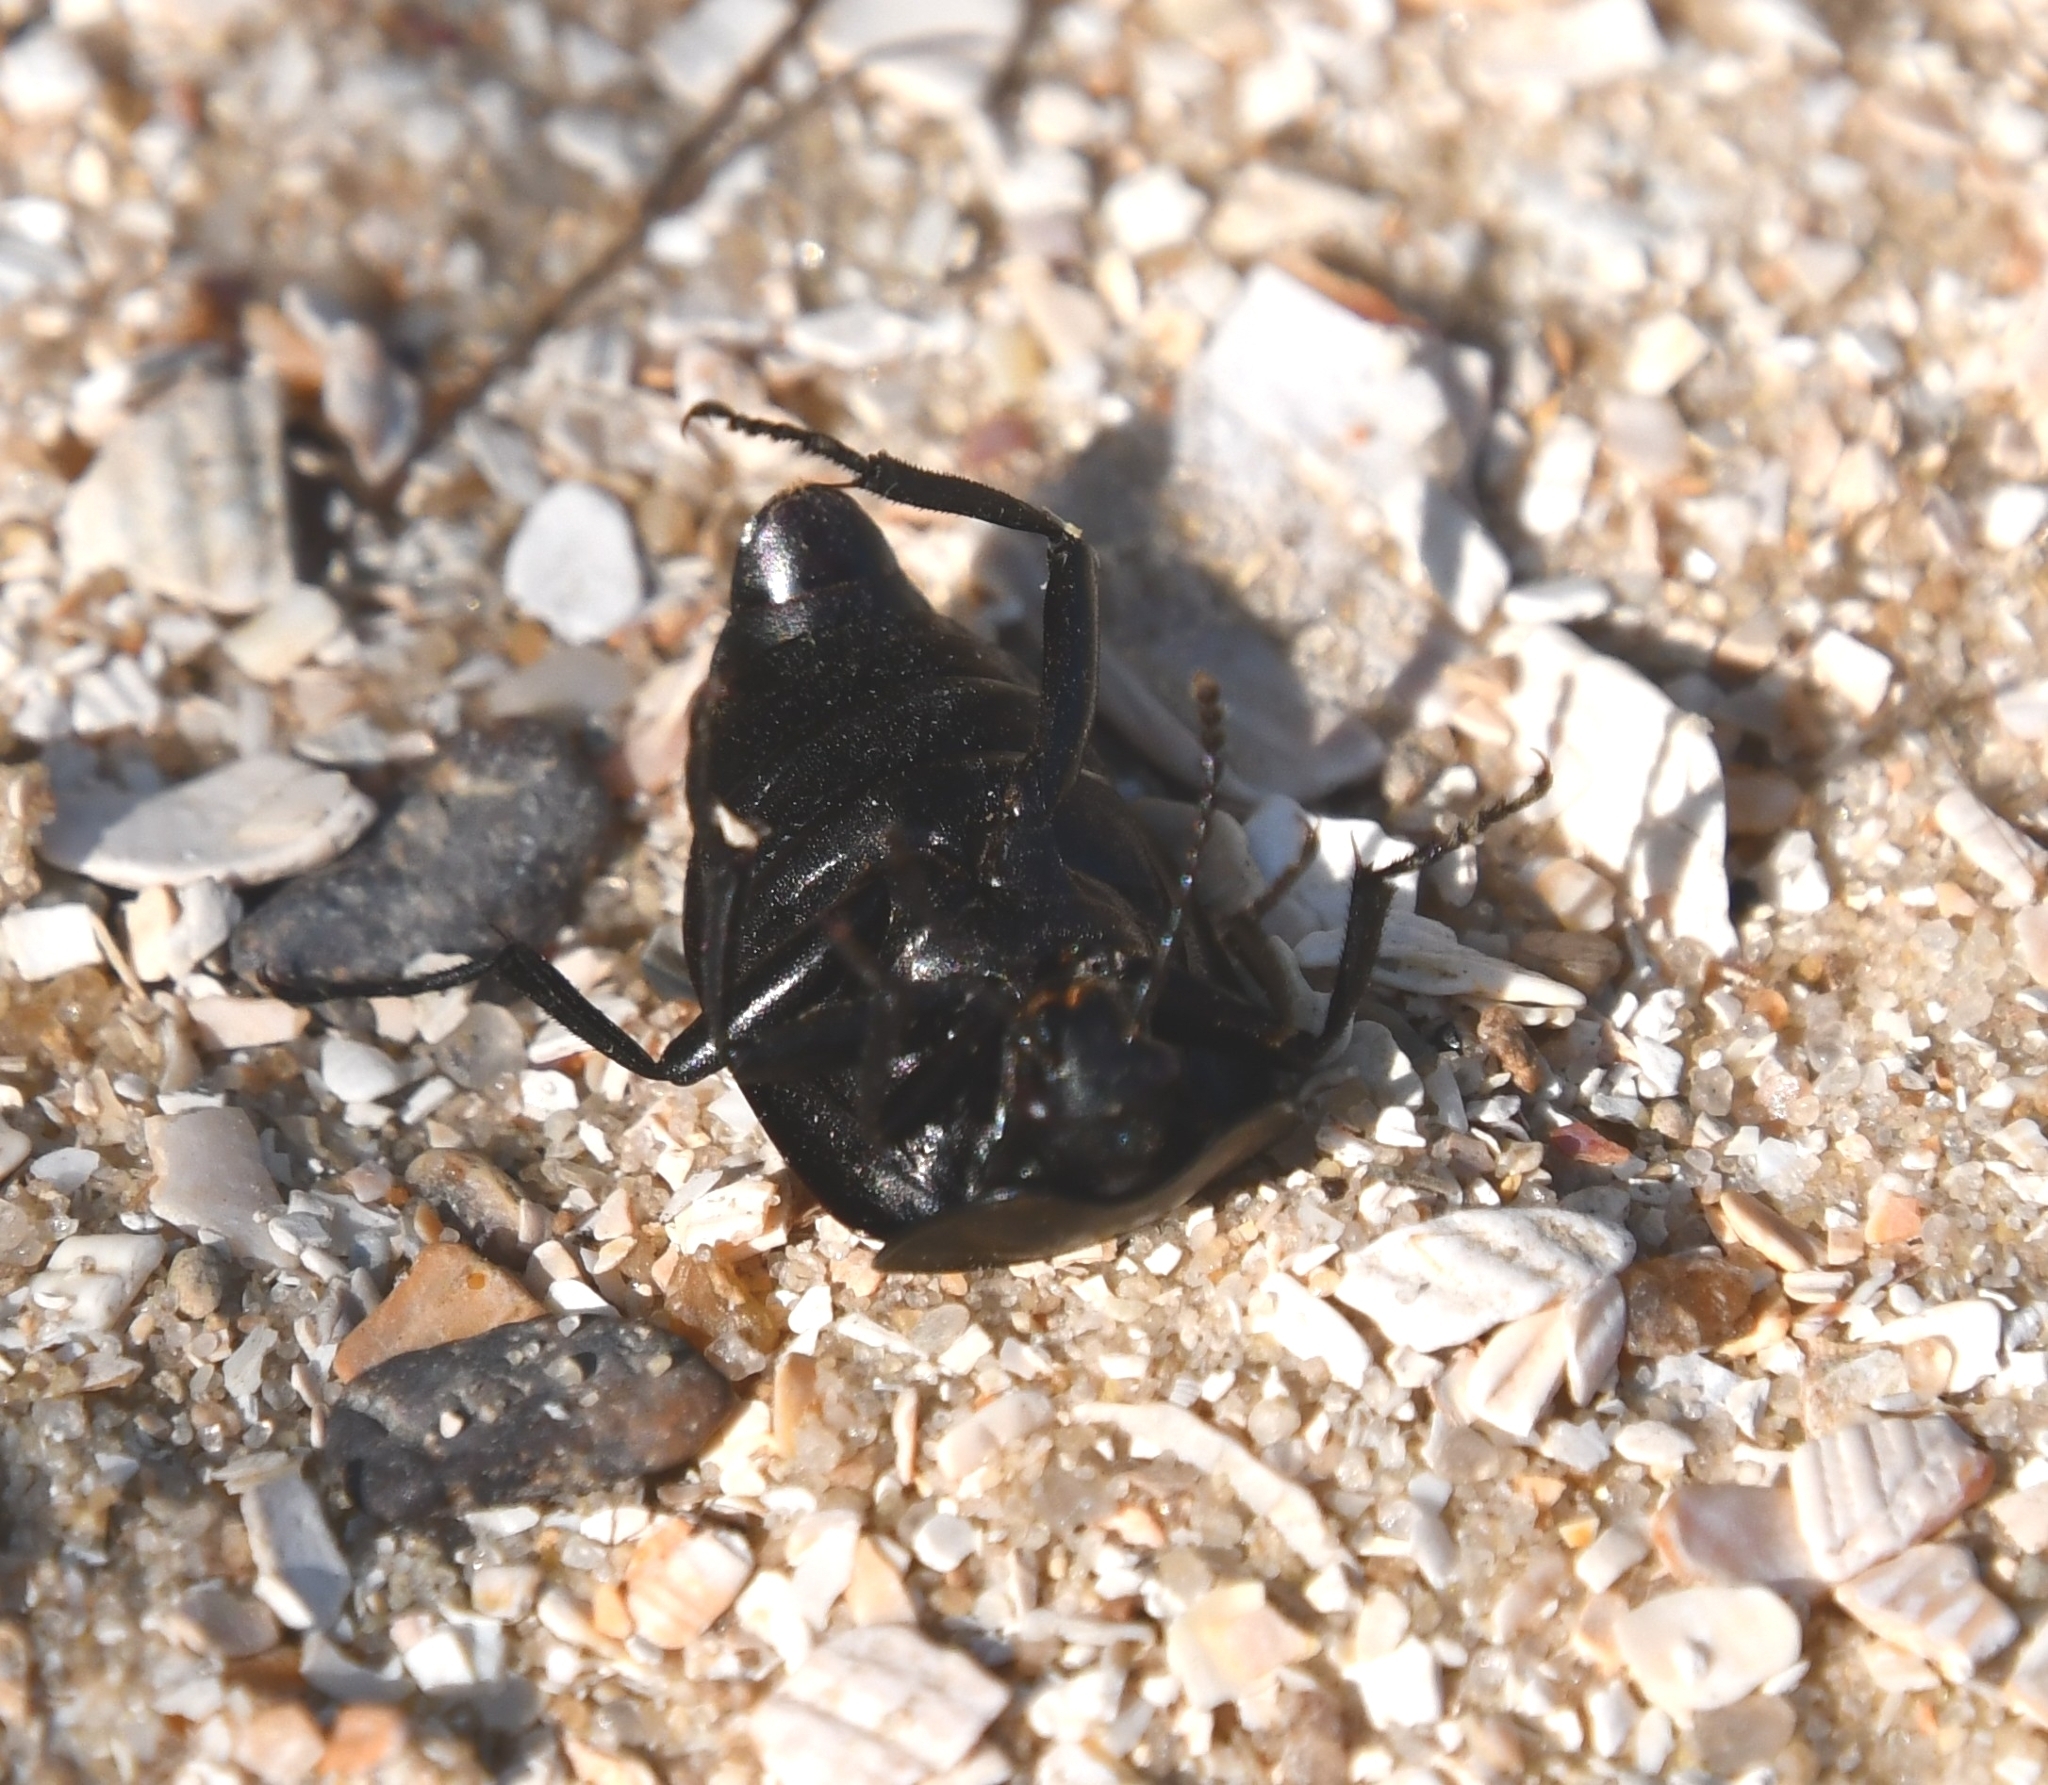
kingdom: Animalia
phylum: Arthropoda
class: Insecta
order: Coleoptera
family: Staphylinidae
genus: Silpha
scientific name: Silpha carinata
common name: Silphid beetle
